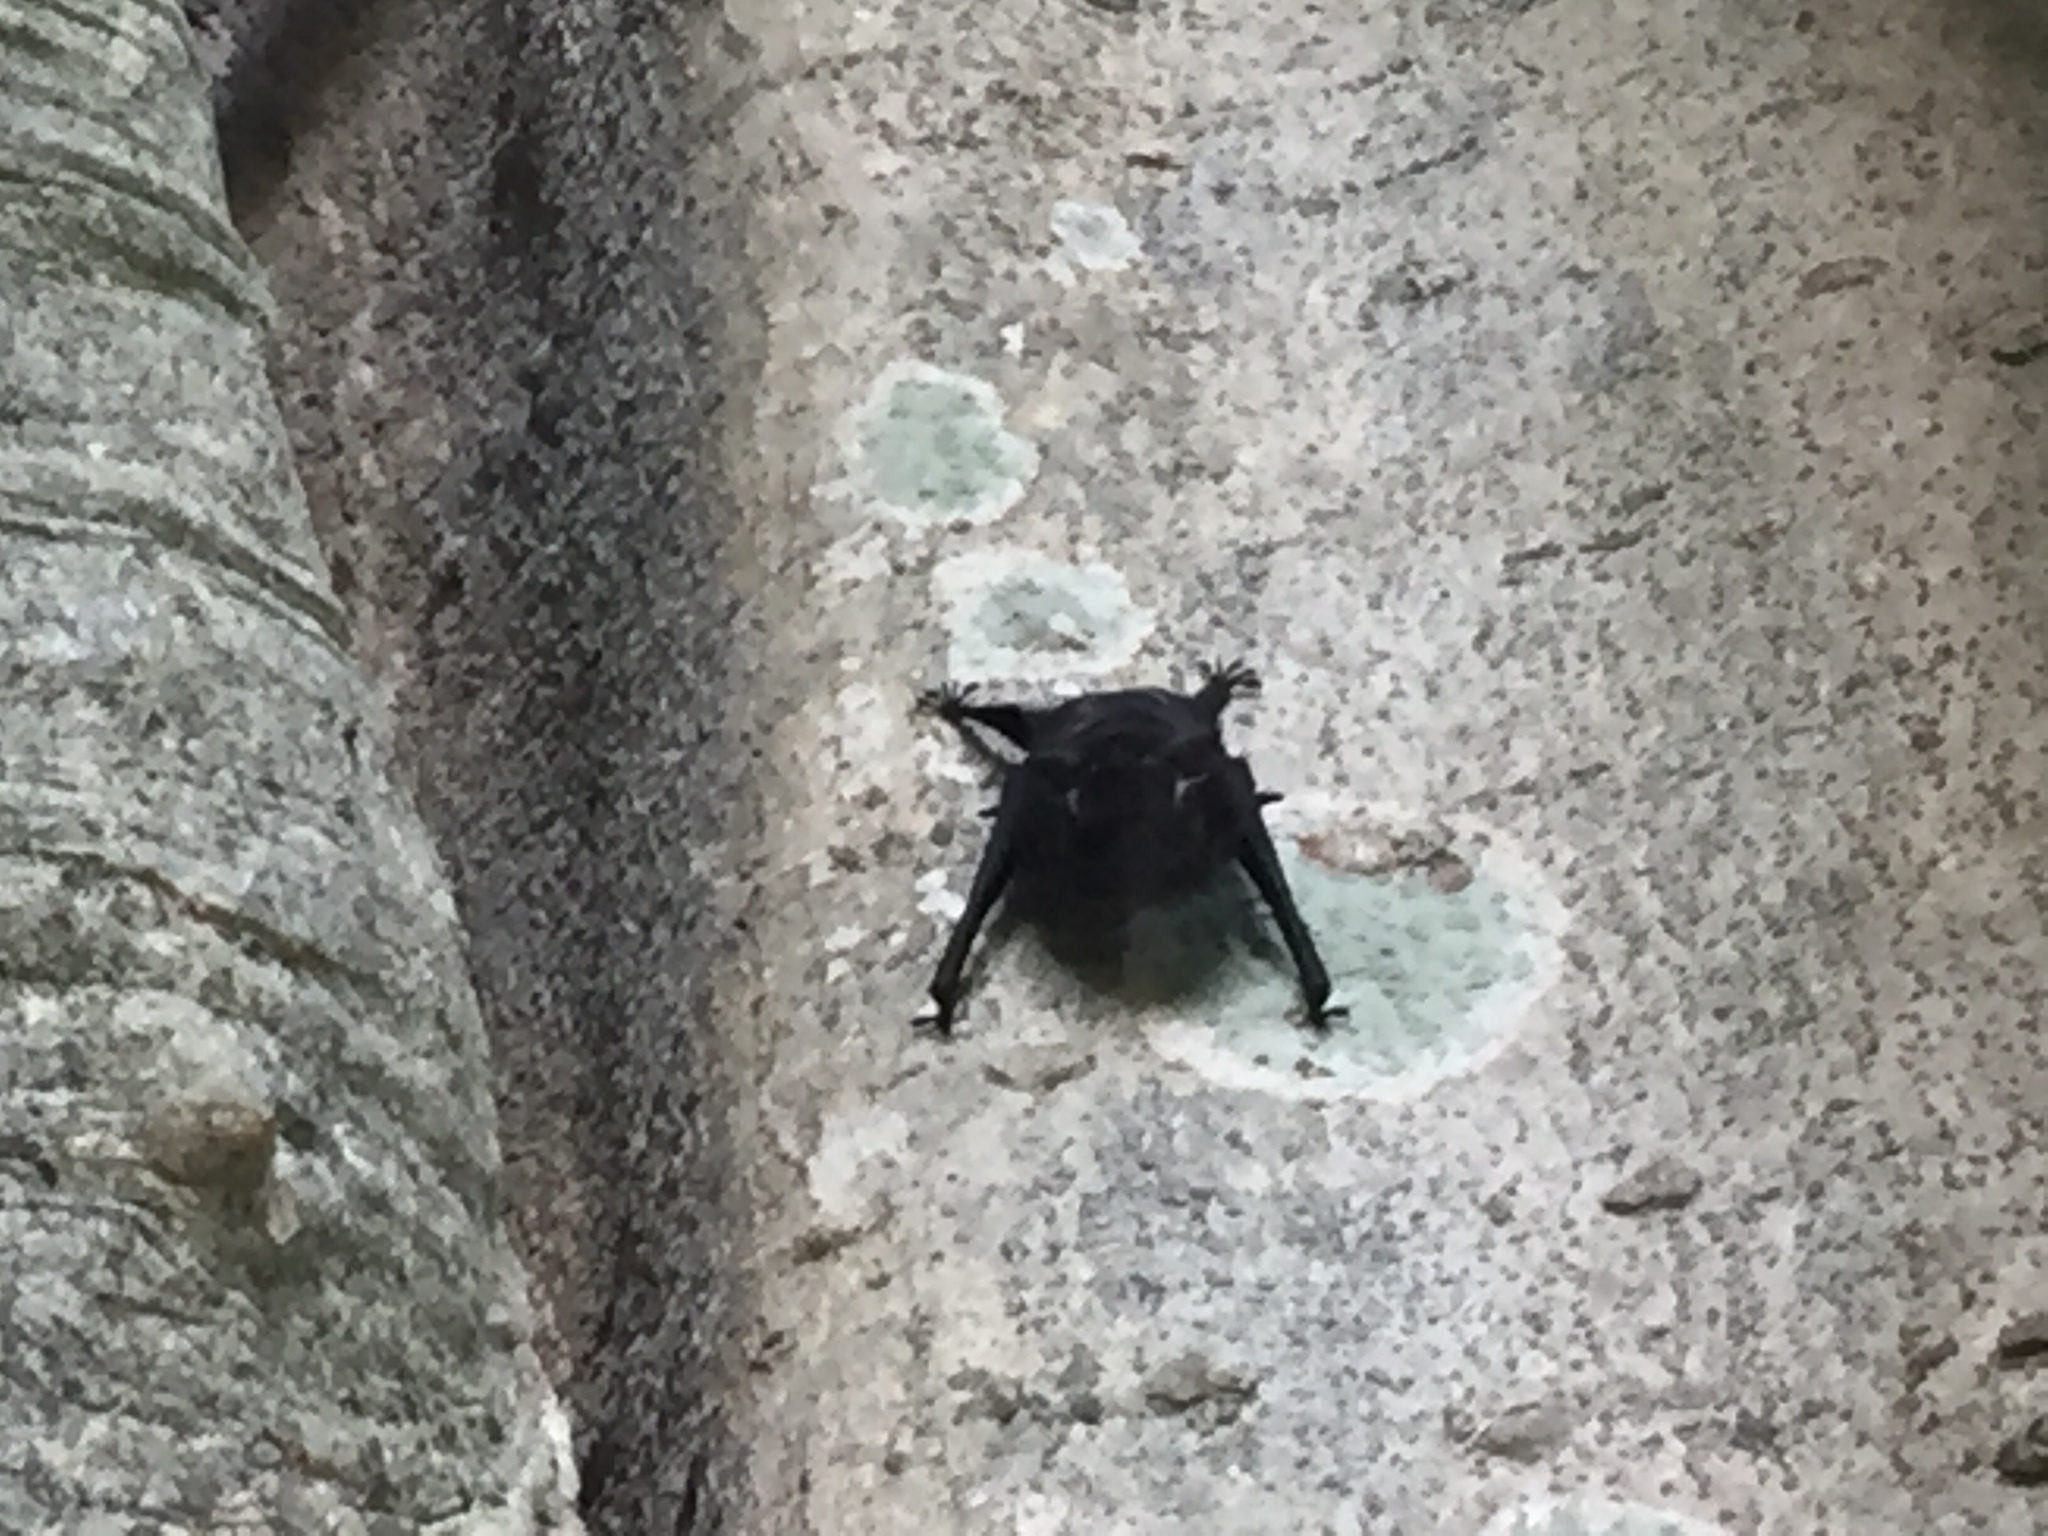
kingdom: Animalia
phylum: Chordata
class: Mammalia
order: Chiroptera
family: Emballonuridae
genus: Saccopteryx
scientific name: Saccopteryx bilineata
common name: Greater sac-winged bat
